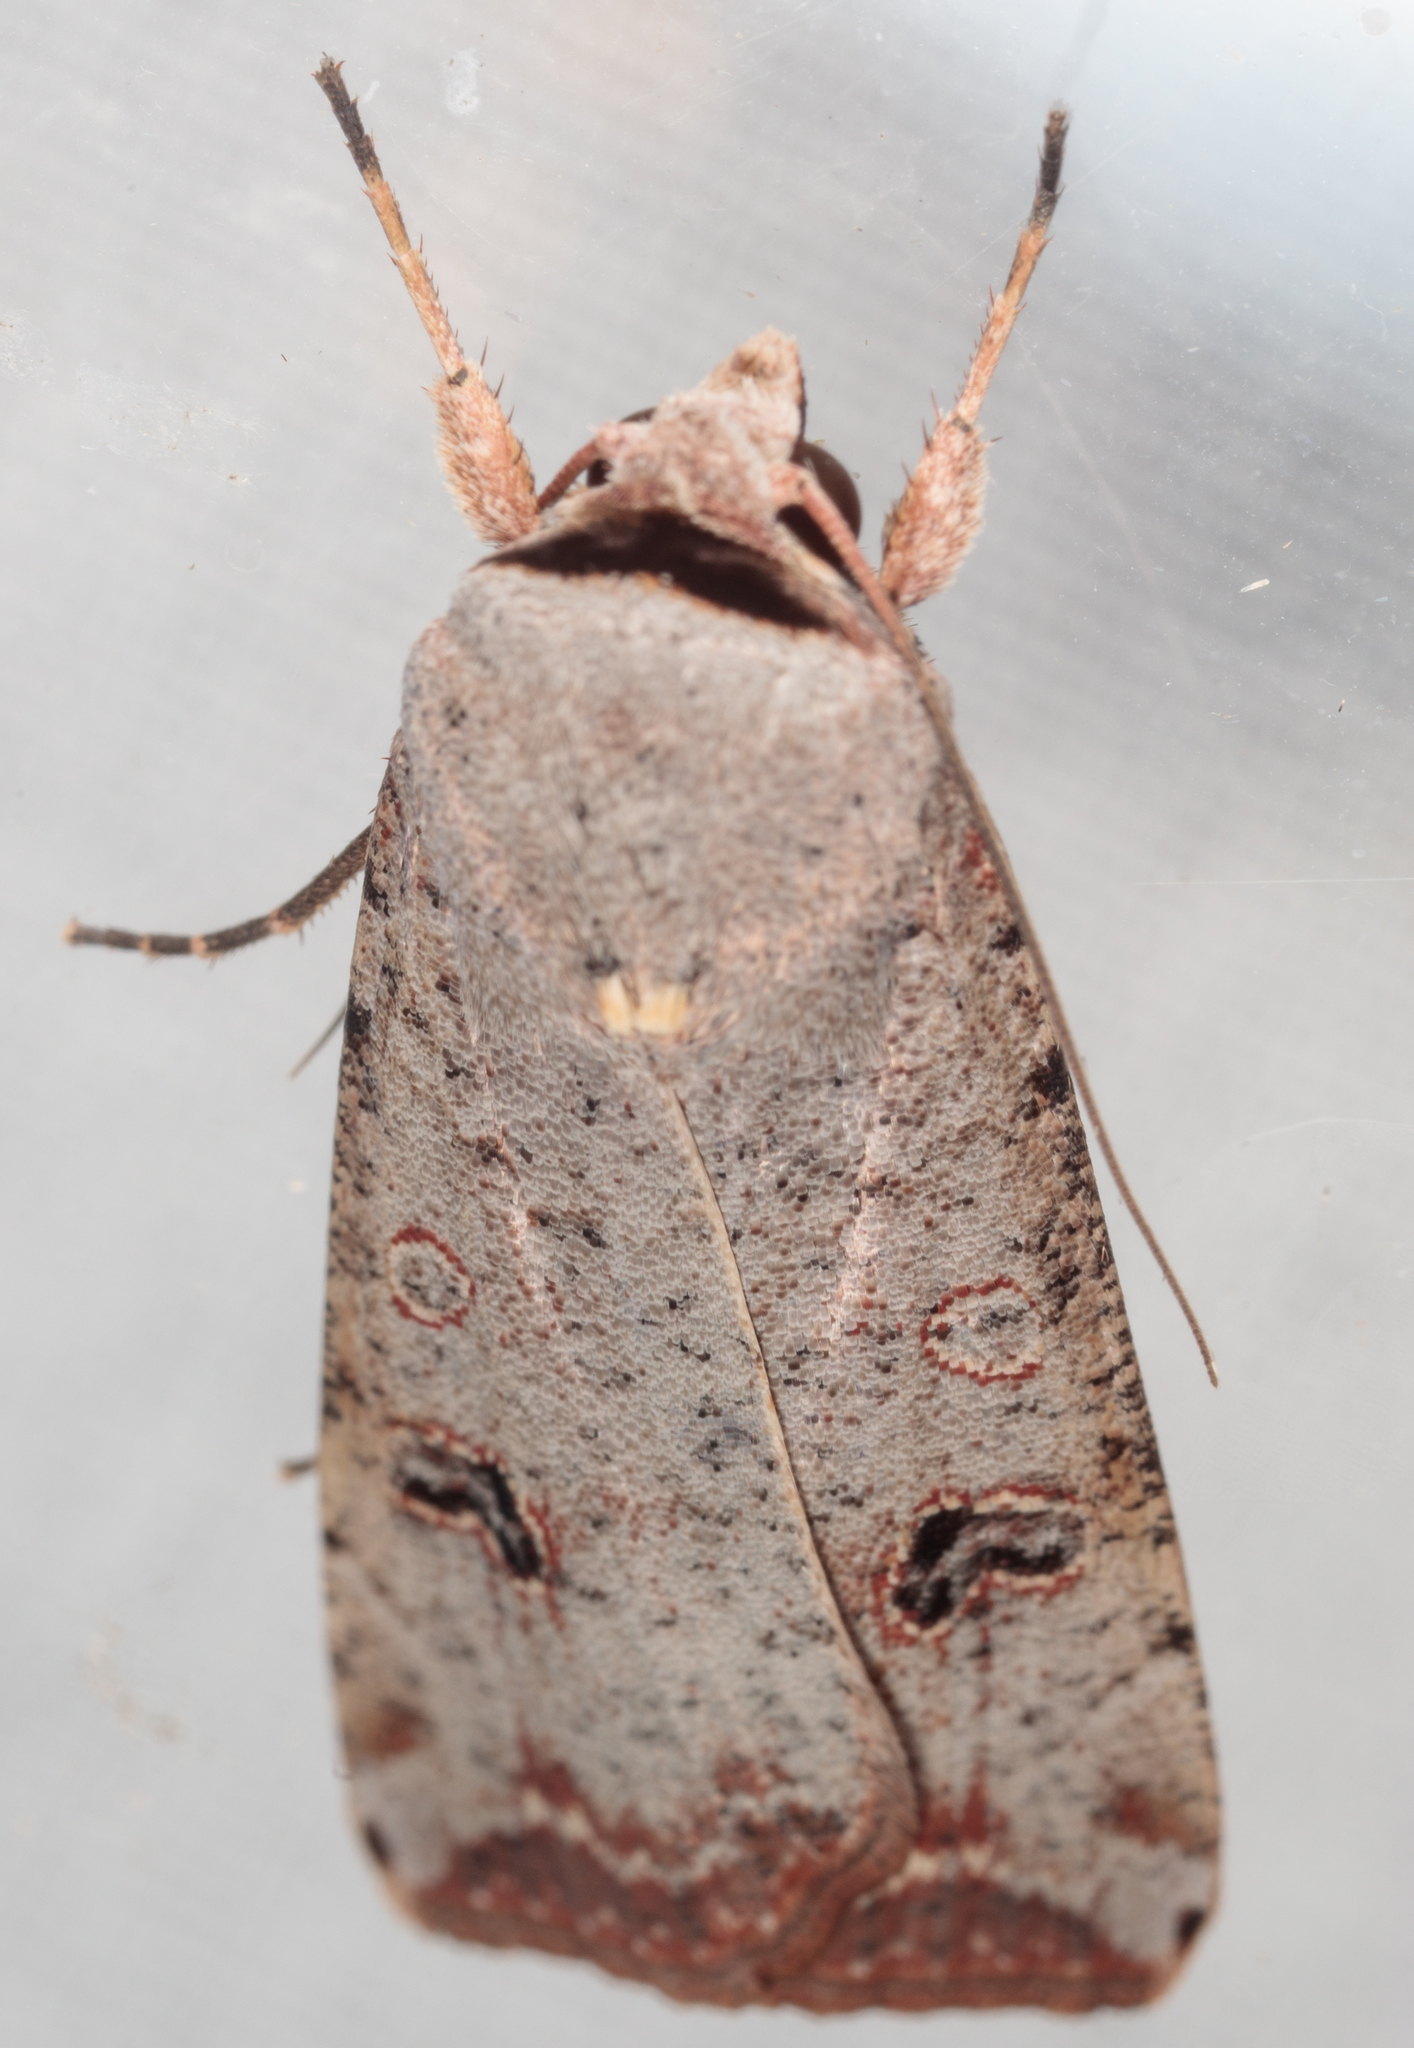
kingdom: Animalia
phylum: Arthropoda
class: Insecta
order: Lepidoptera
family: Noctuidae
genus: Anicla
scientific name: Anicla infecta
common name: Green cutworm
